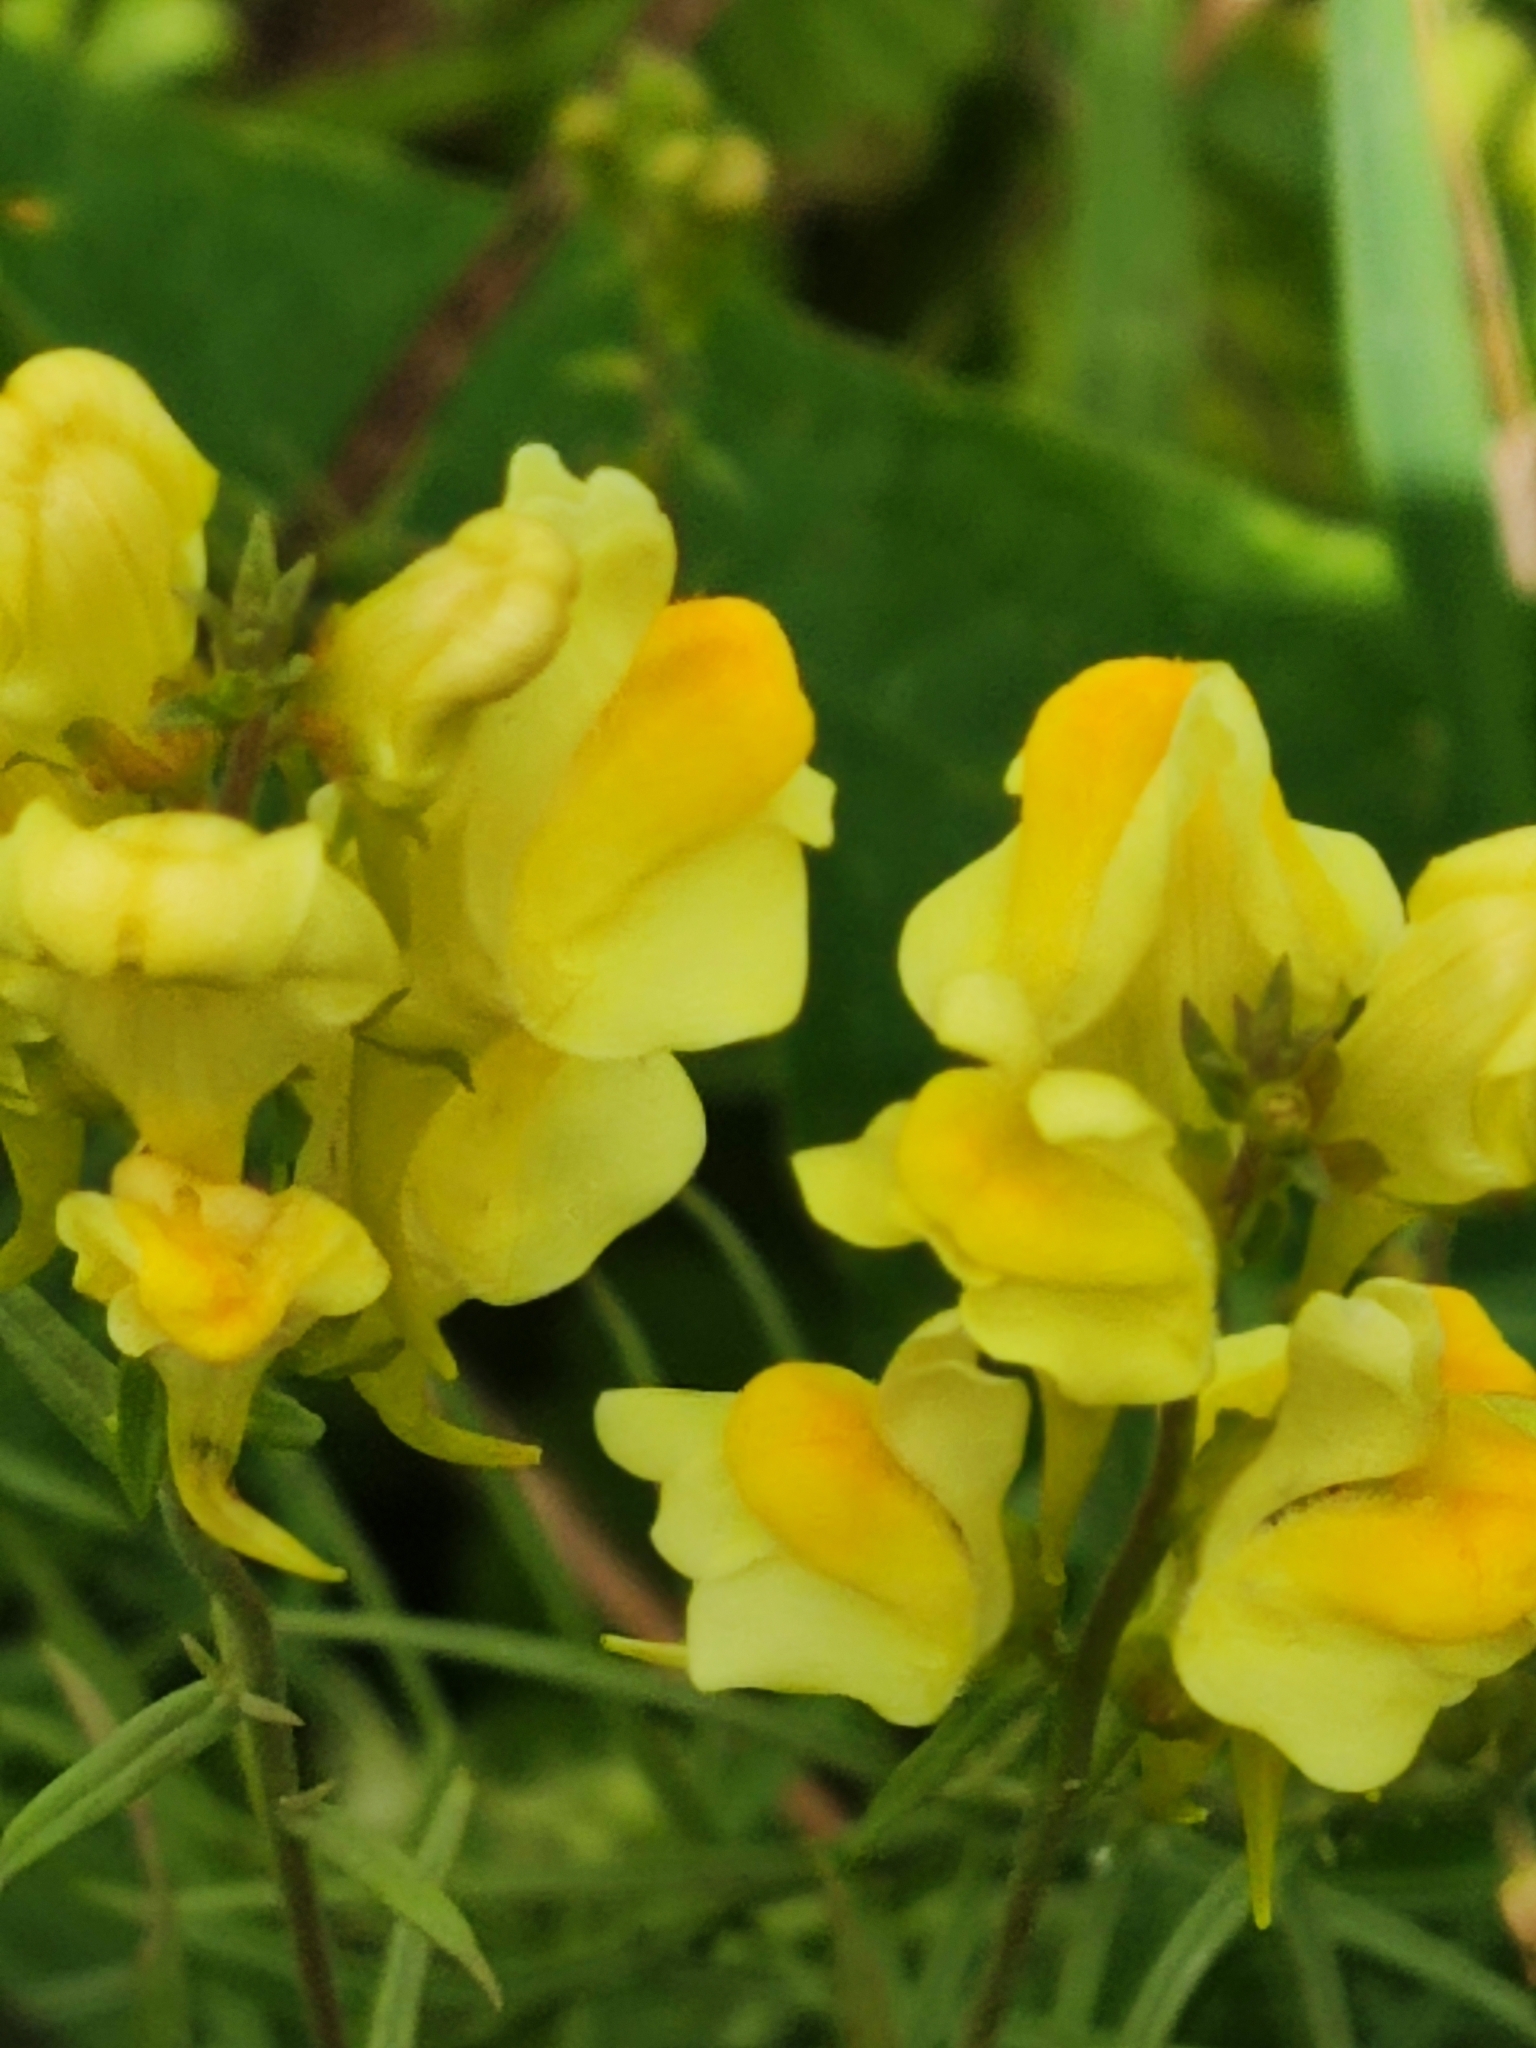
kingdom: Plantae
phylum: Tracheophyta
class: Magnoliopsida
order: Lamiales
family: Plantaginaceae
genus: Linaria
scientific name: Linaria vulgaris
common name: Butter and eggs
